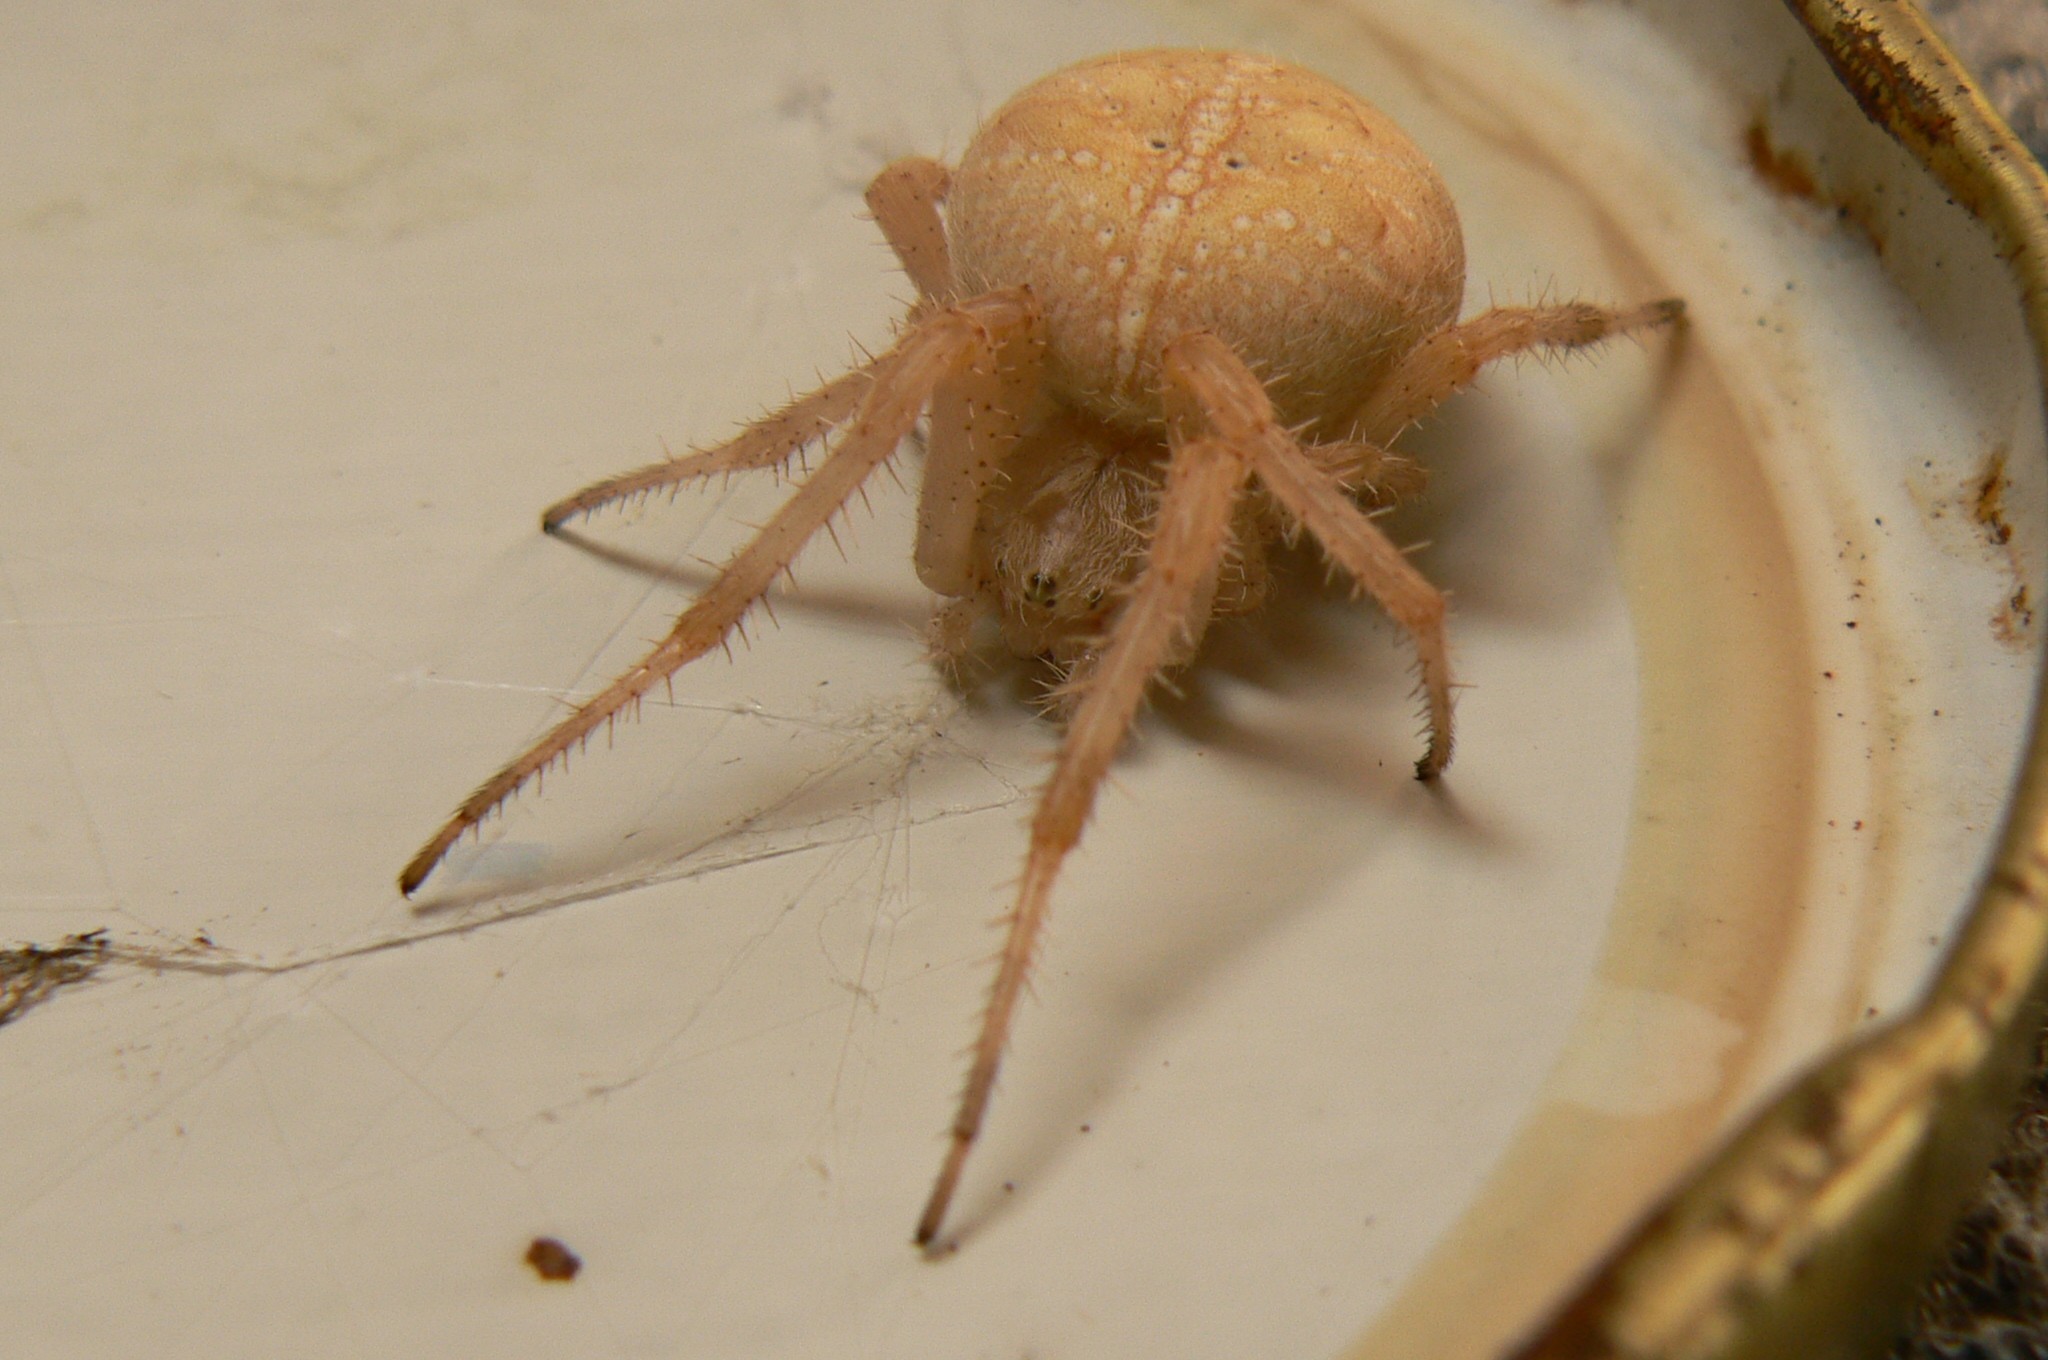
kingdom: Animalia
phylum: Arthropoda
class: Arachnida
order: Araneae
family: Araneidae
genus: Araneus
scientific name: Araneus diadematus
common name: Cross orbweaver
